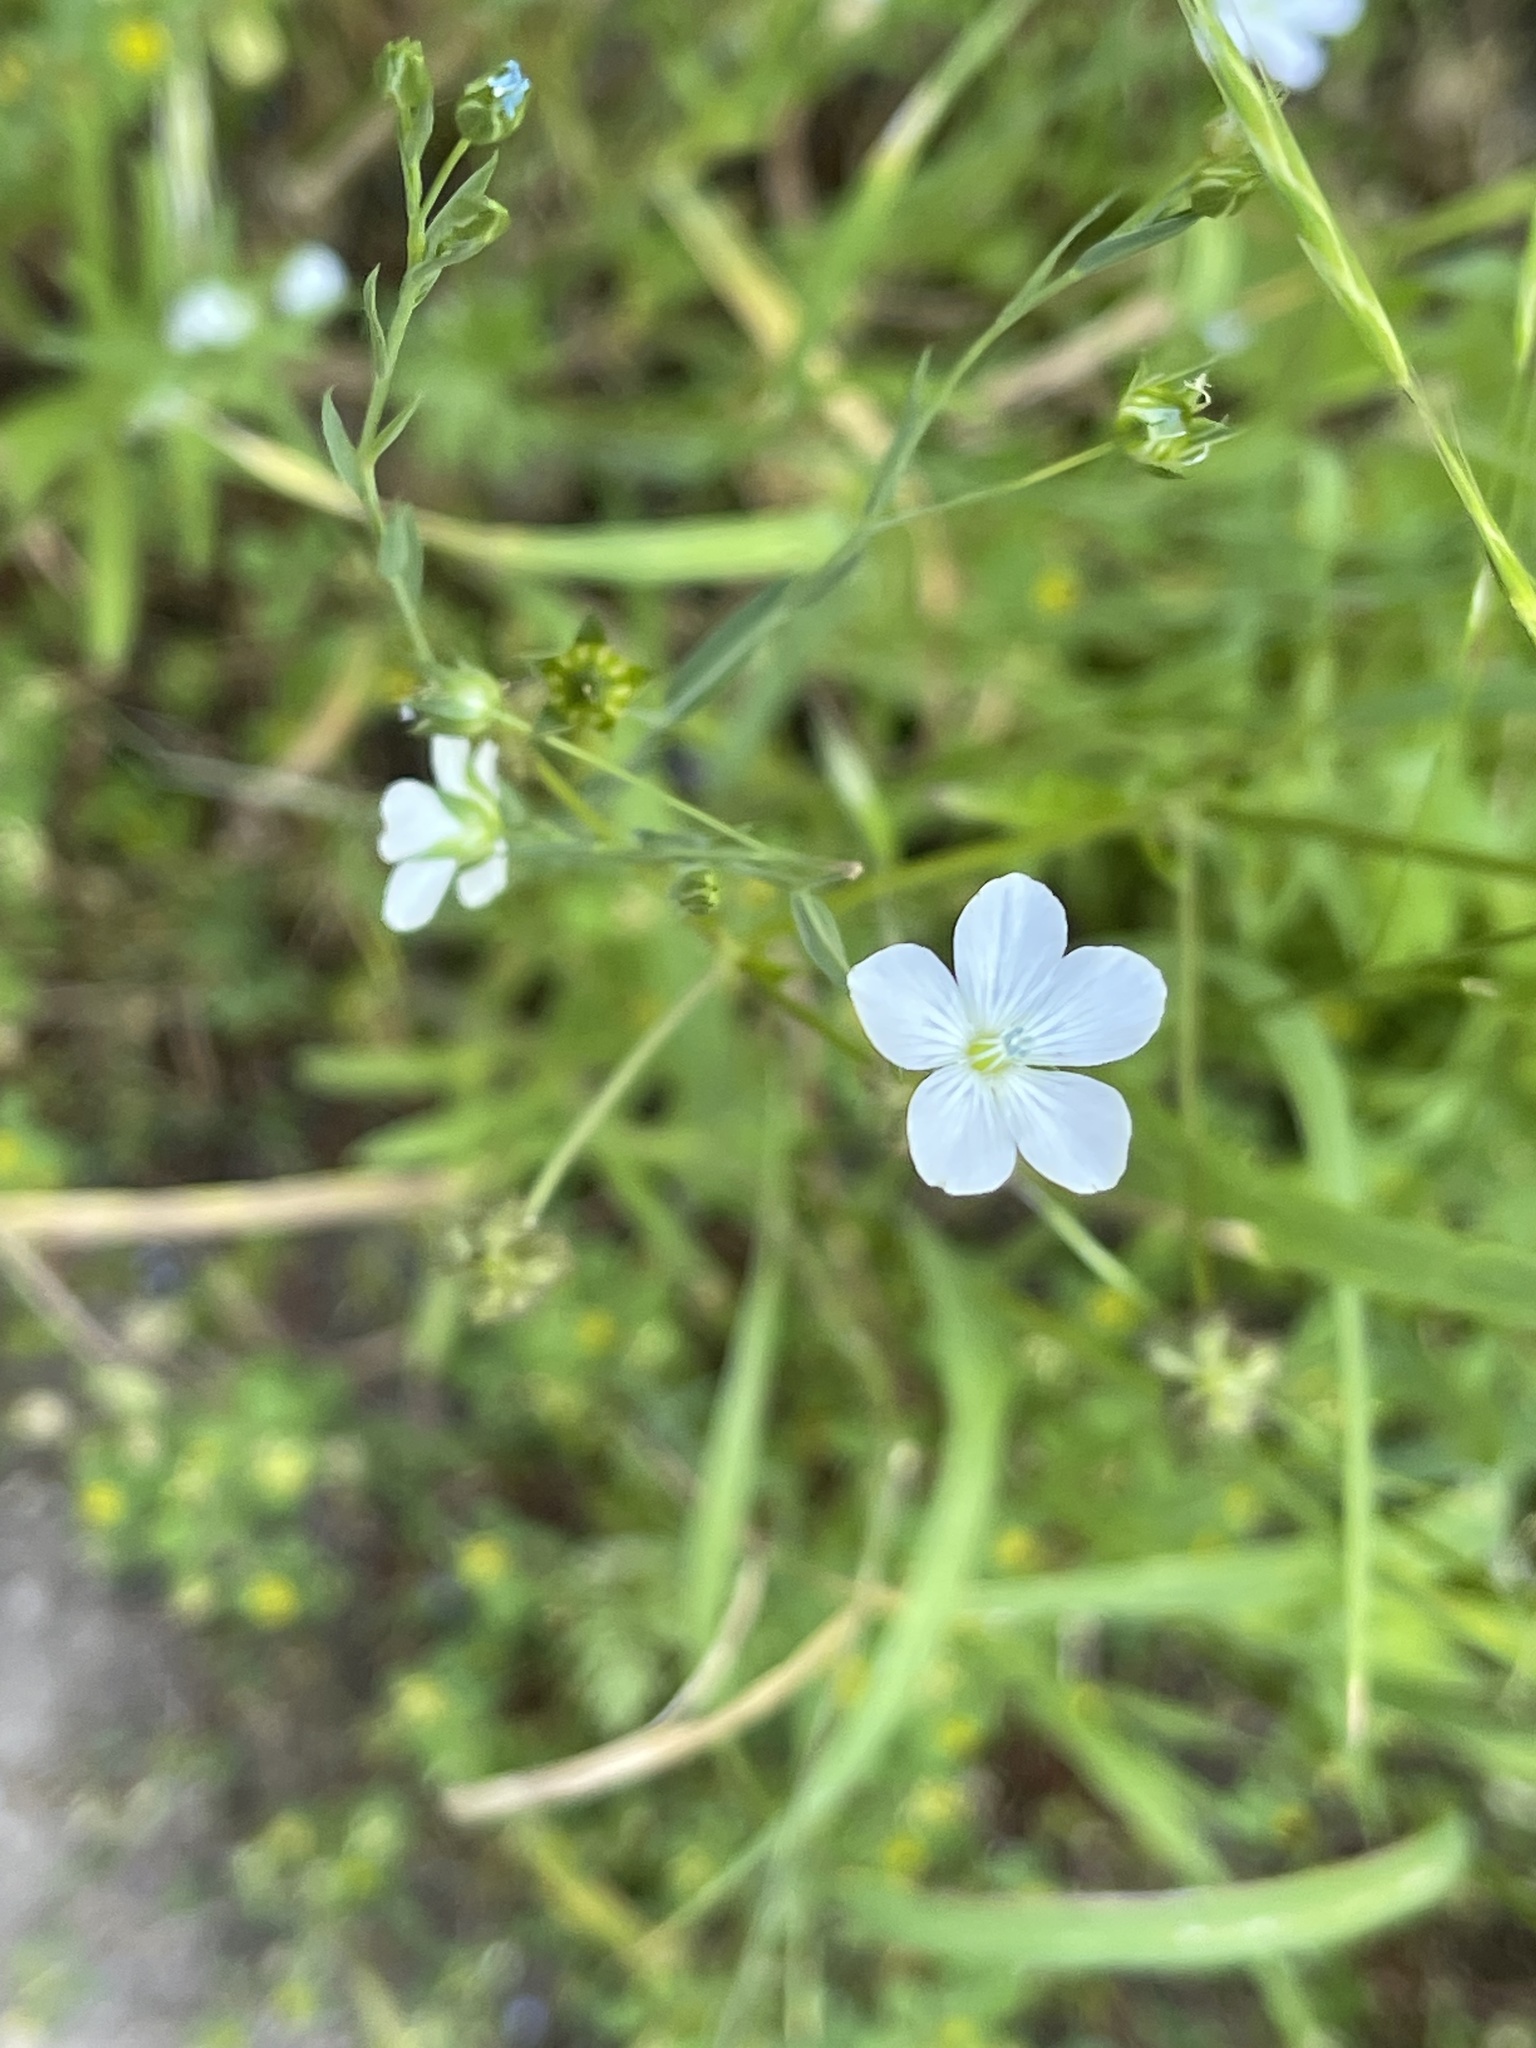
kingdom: Plantae
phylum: Tracheophyta
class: Magnoliopsida
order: Malpighiales
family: Linaceae
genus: Linum
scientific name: Linum bienne
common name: Pale flax
